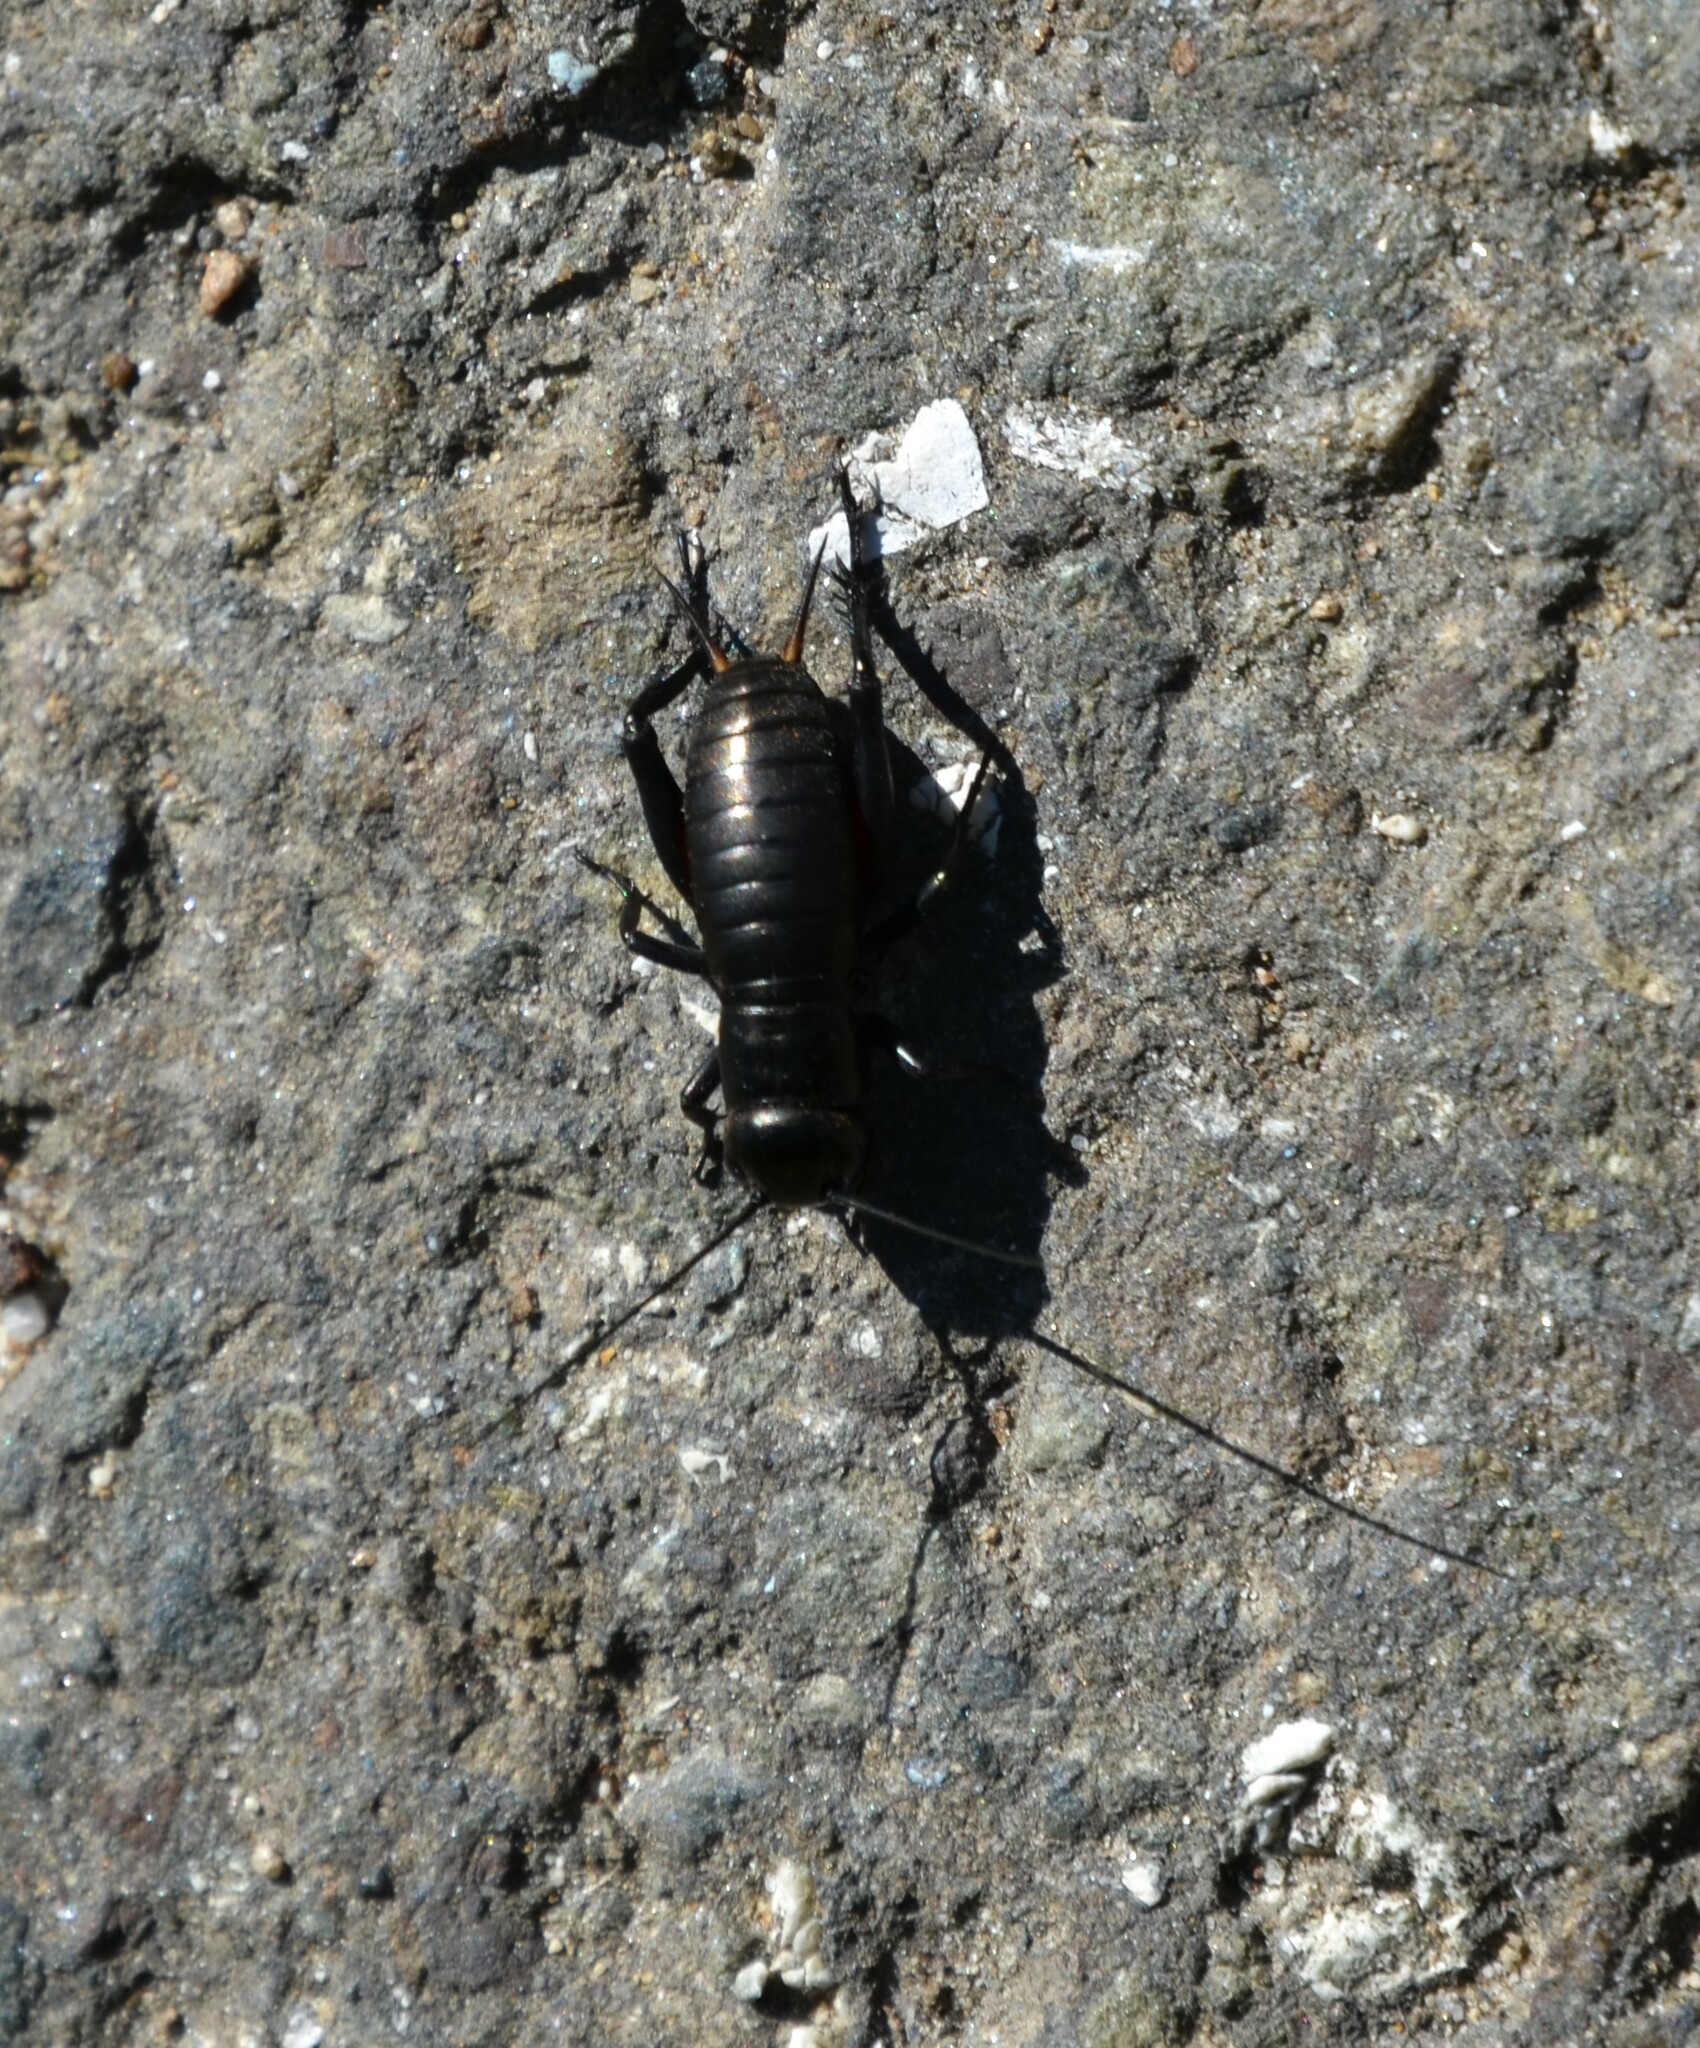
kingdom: Animalia
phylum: Arthropoda
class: Insecta
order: Orthoptera
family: Gryllidae
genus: Gryllus
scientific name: Gryllus campestris
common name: Field cricket
